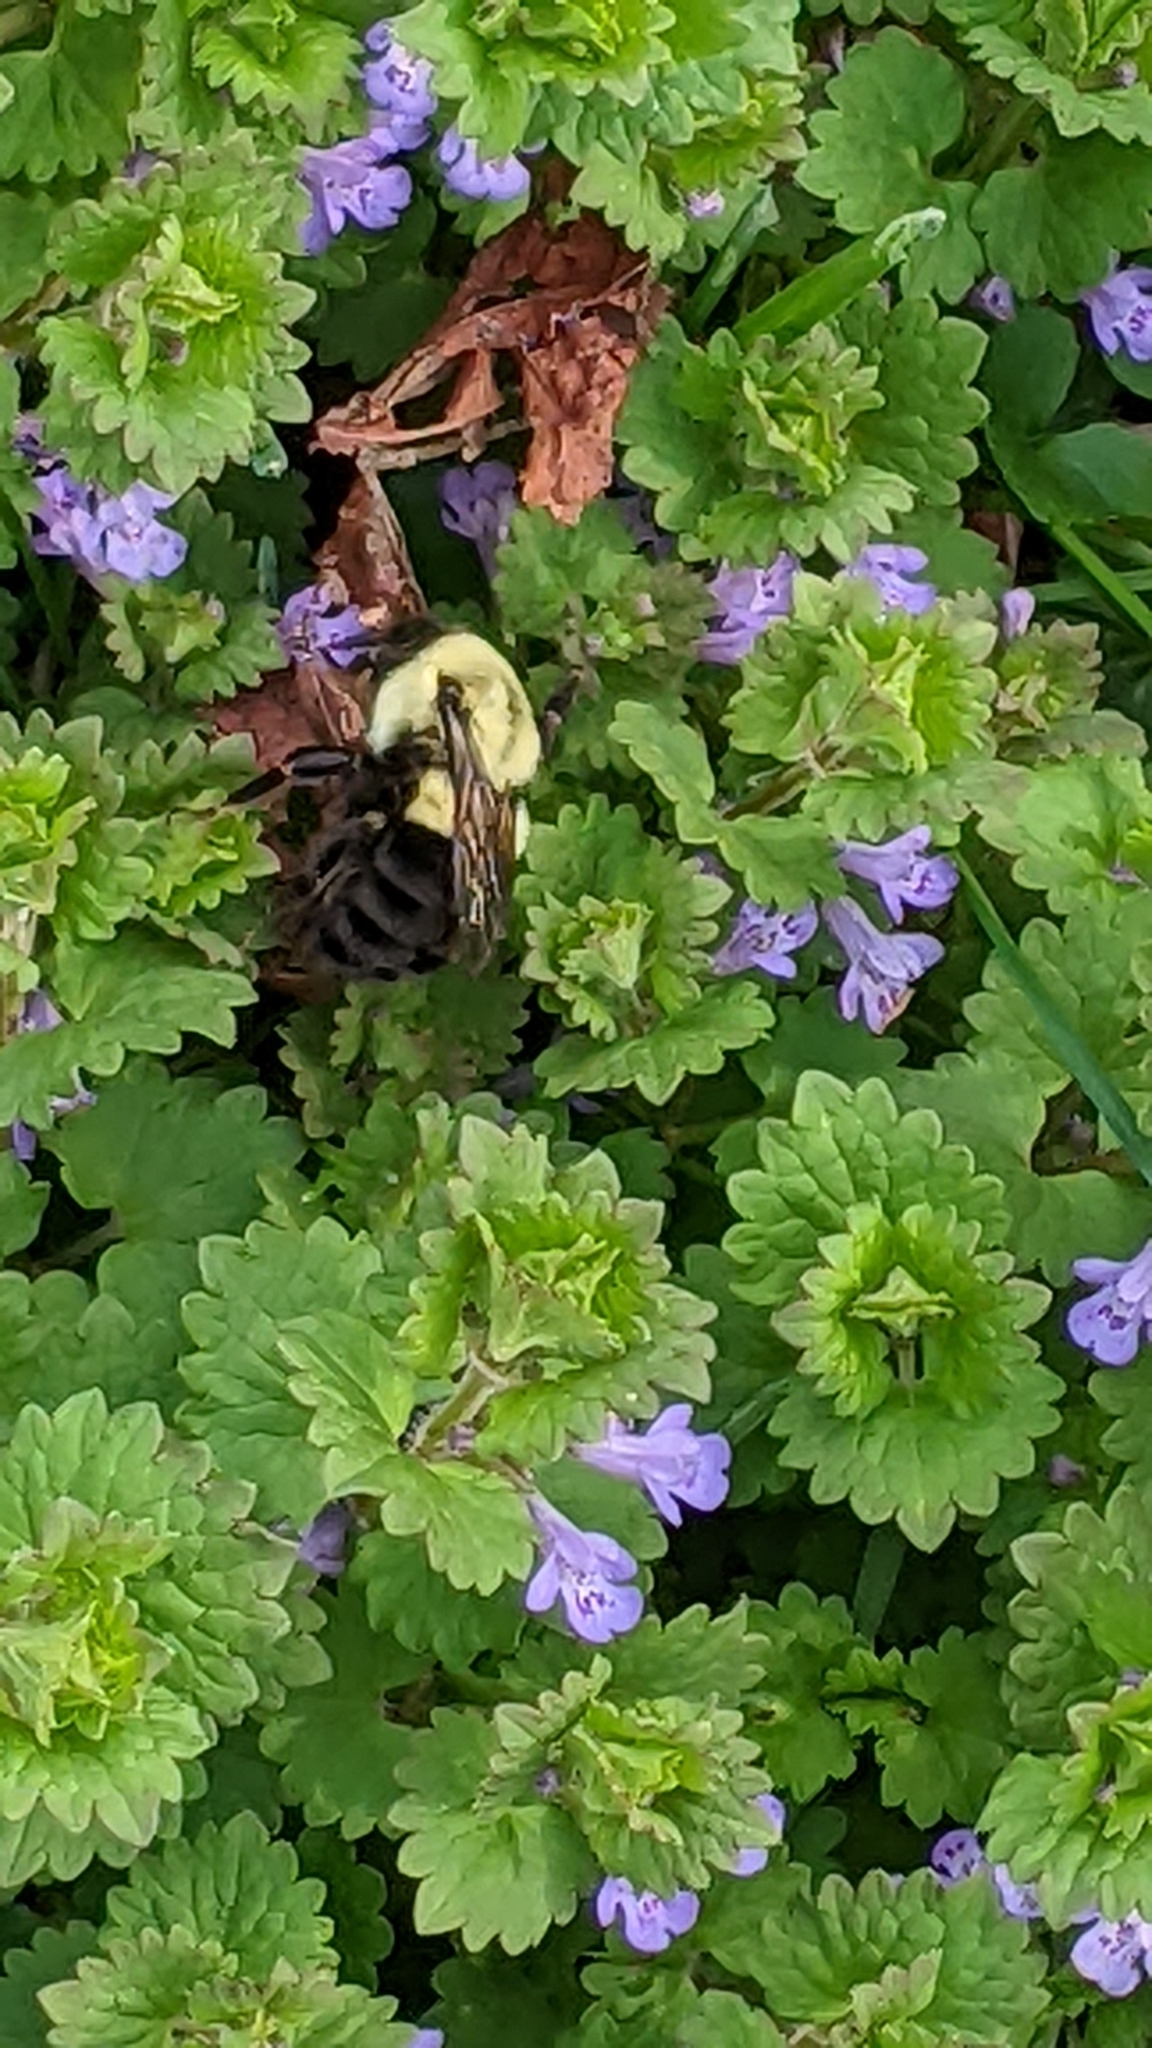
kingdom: Animalia
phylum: Arthropoda
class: Insecta
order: Hymenoptera
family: Apidae
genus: Bombus
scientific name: Bombus impatiens
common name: Common eastern bumble bee
